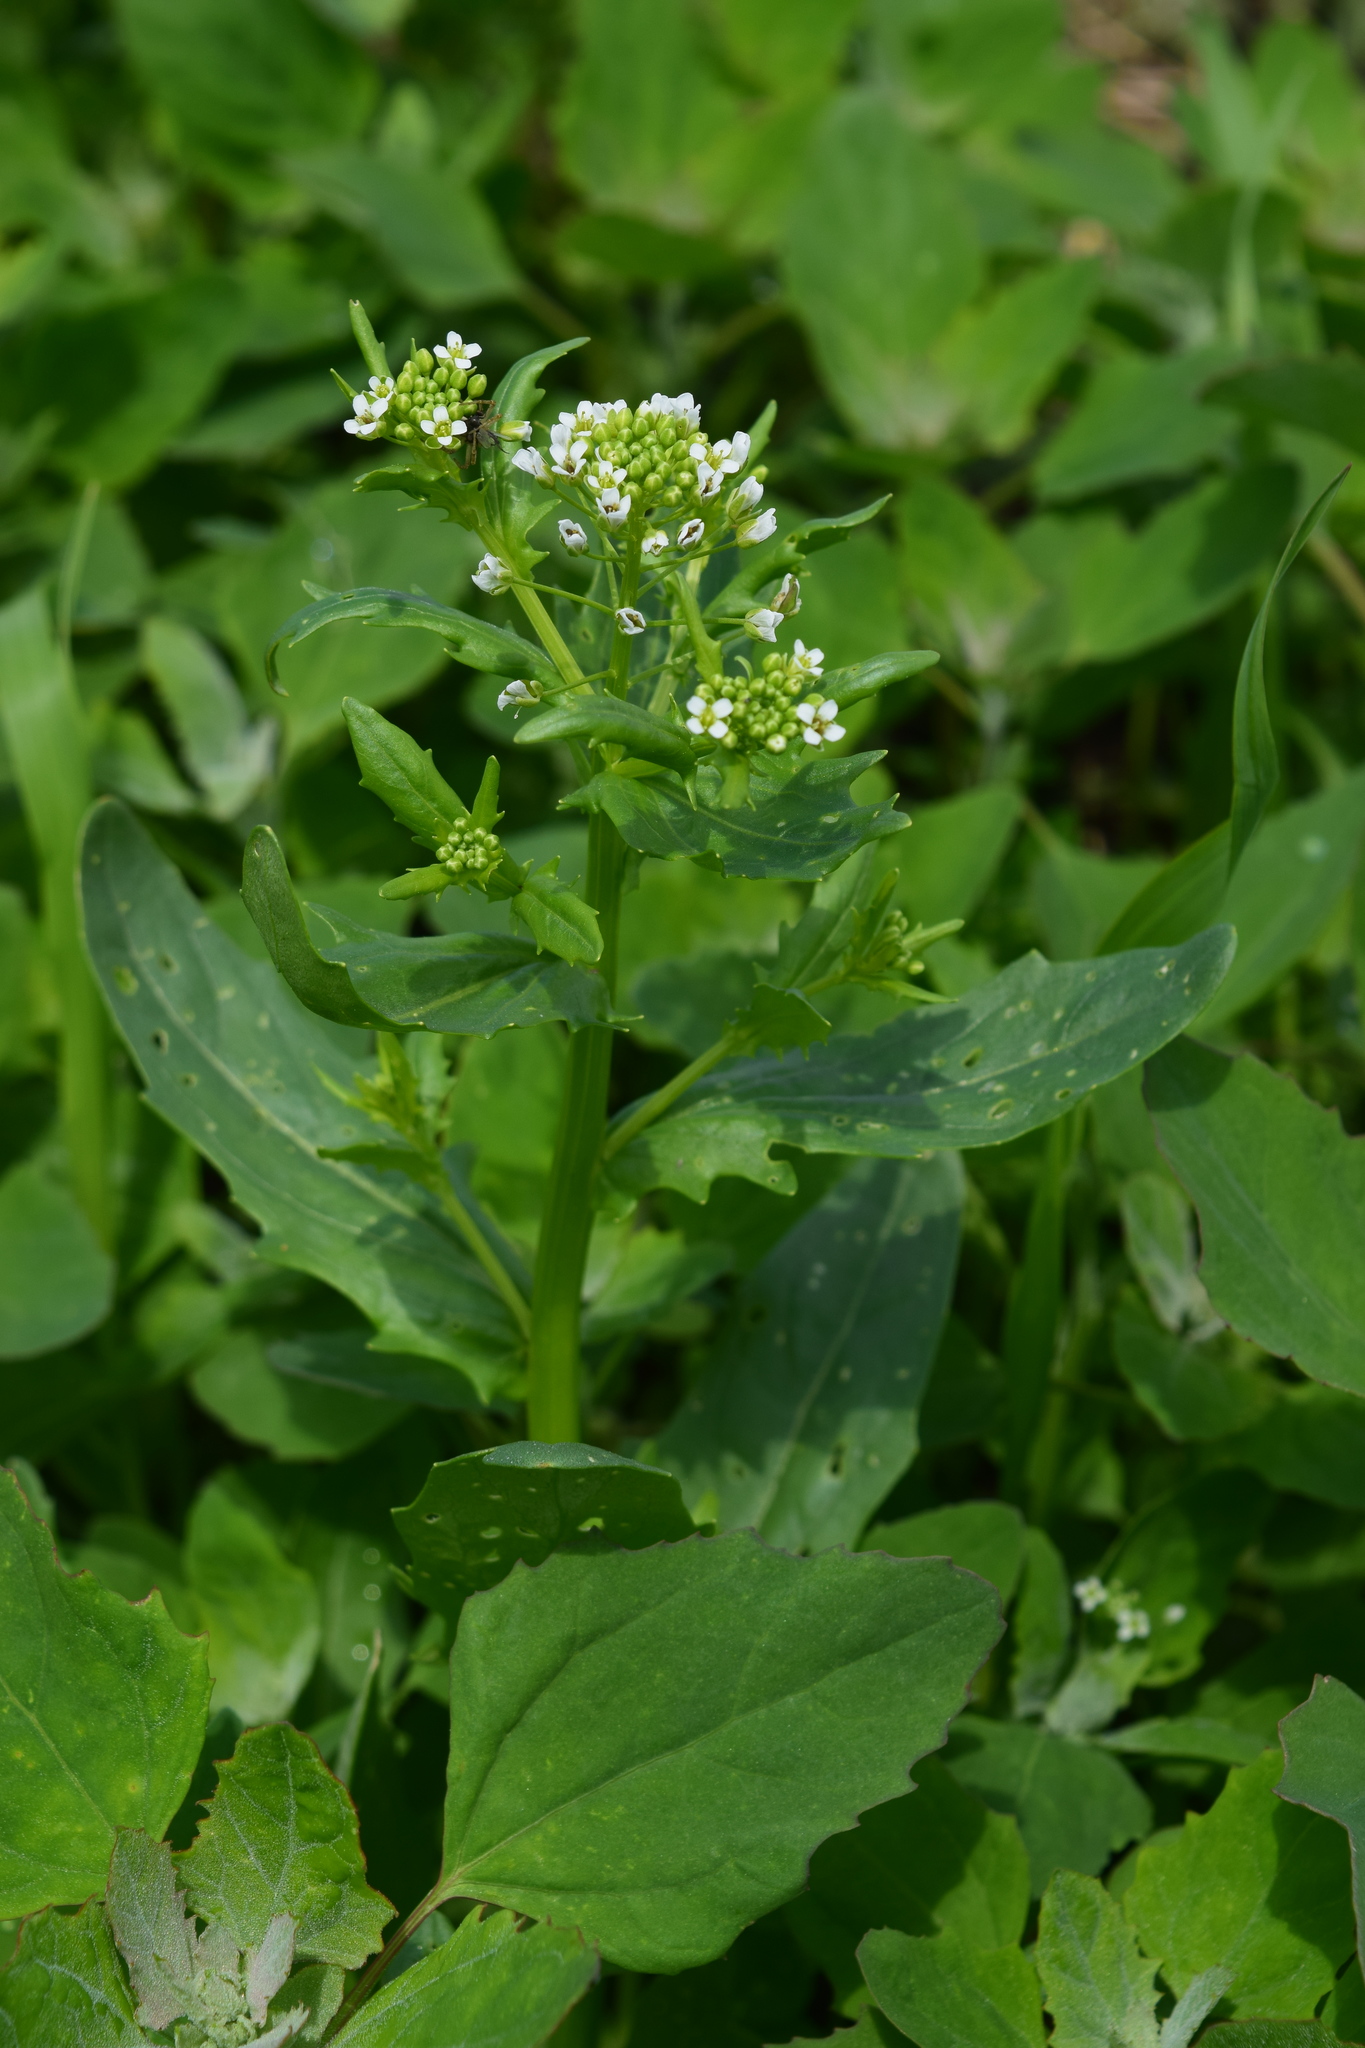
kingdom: Plantae
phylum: Tracheophyta
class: Magnoliopsida
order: Brassicales
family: Brassicaceae
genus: Thlaspi
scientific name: Thlaspi arvense
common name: Field pennycress
